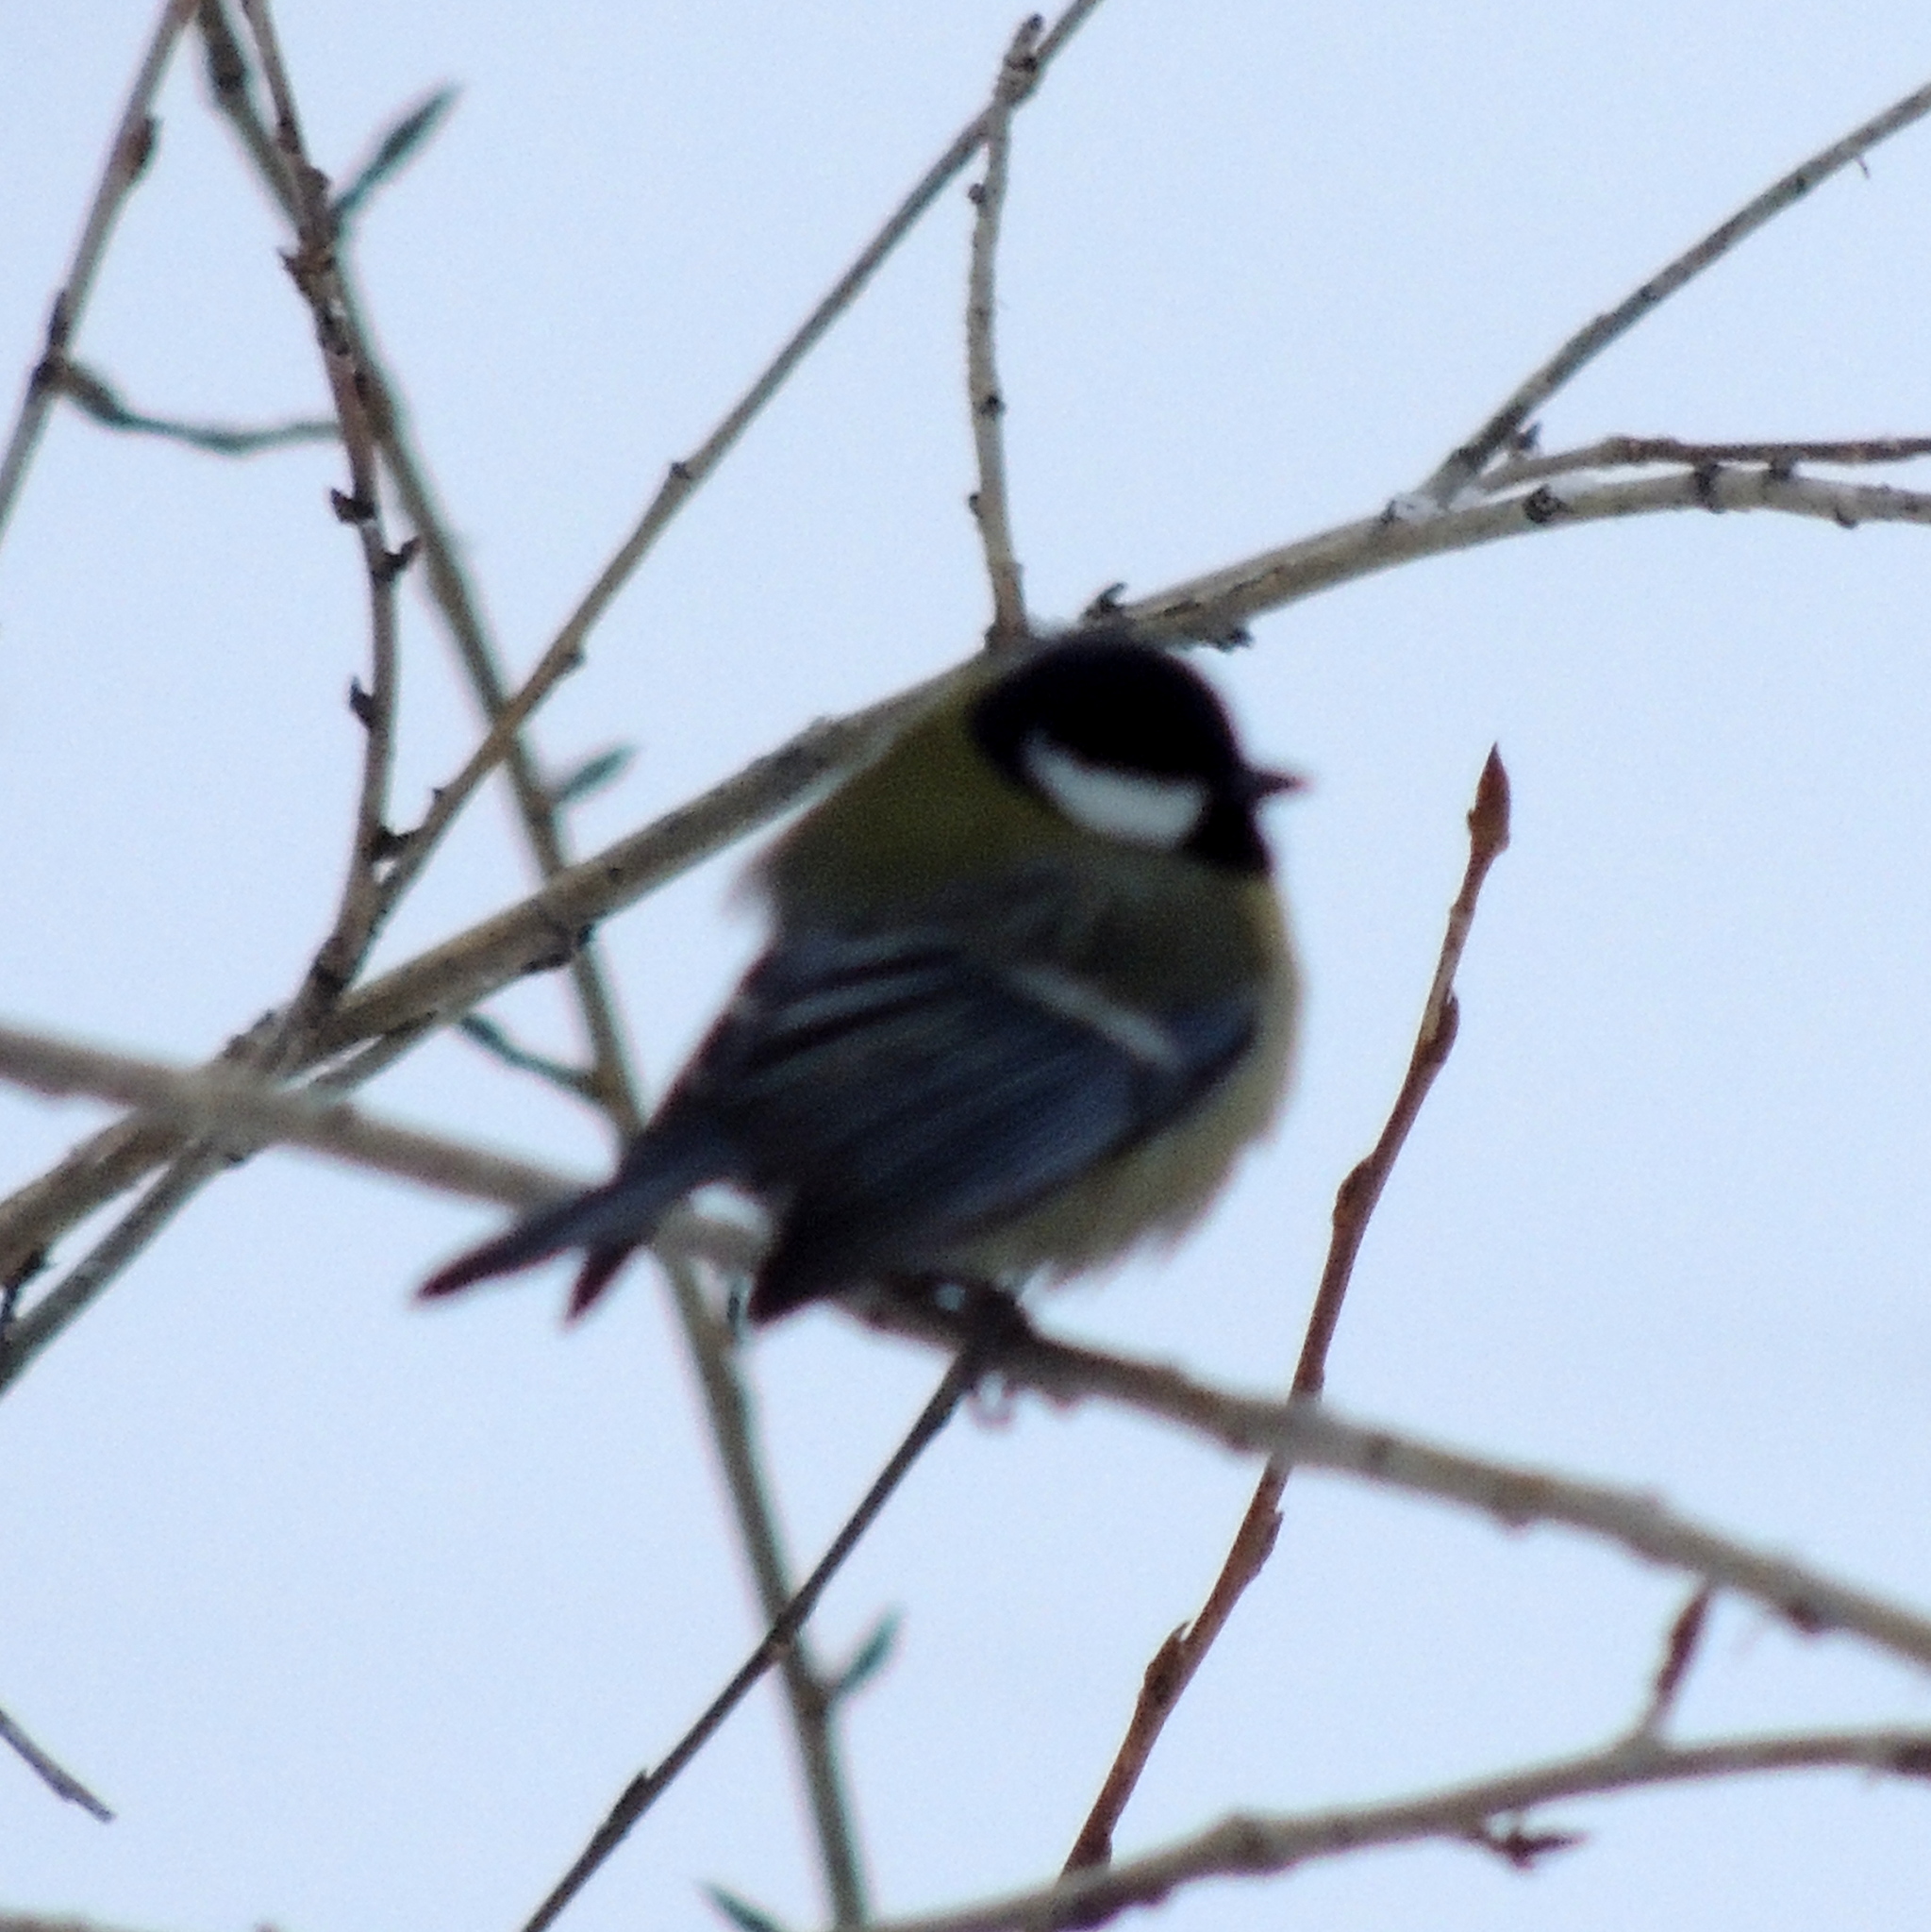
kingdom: Animalia
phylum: Chordata
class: Aves
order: Passeriformes
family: Paridae
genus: Parus
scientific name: Parus major
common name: Great tit
